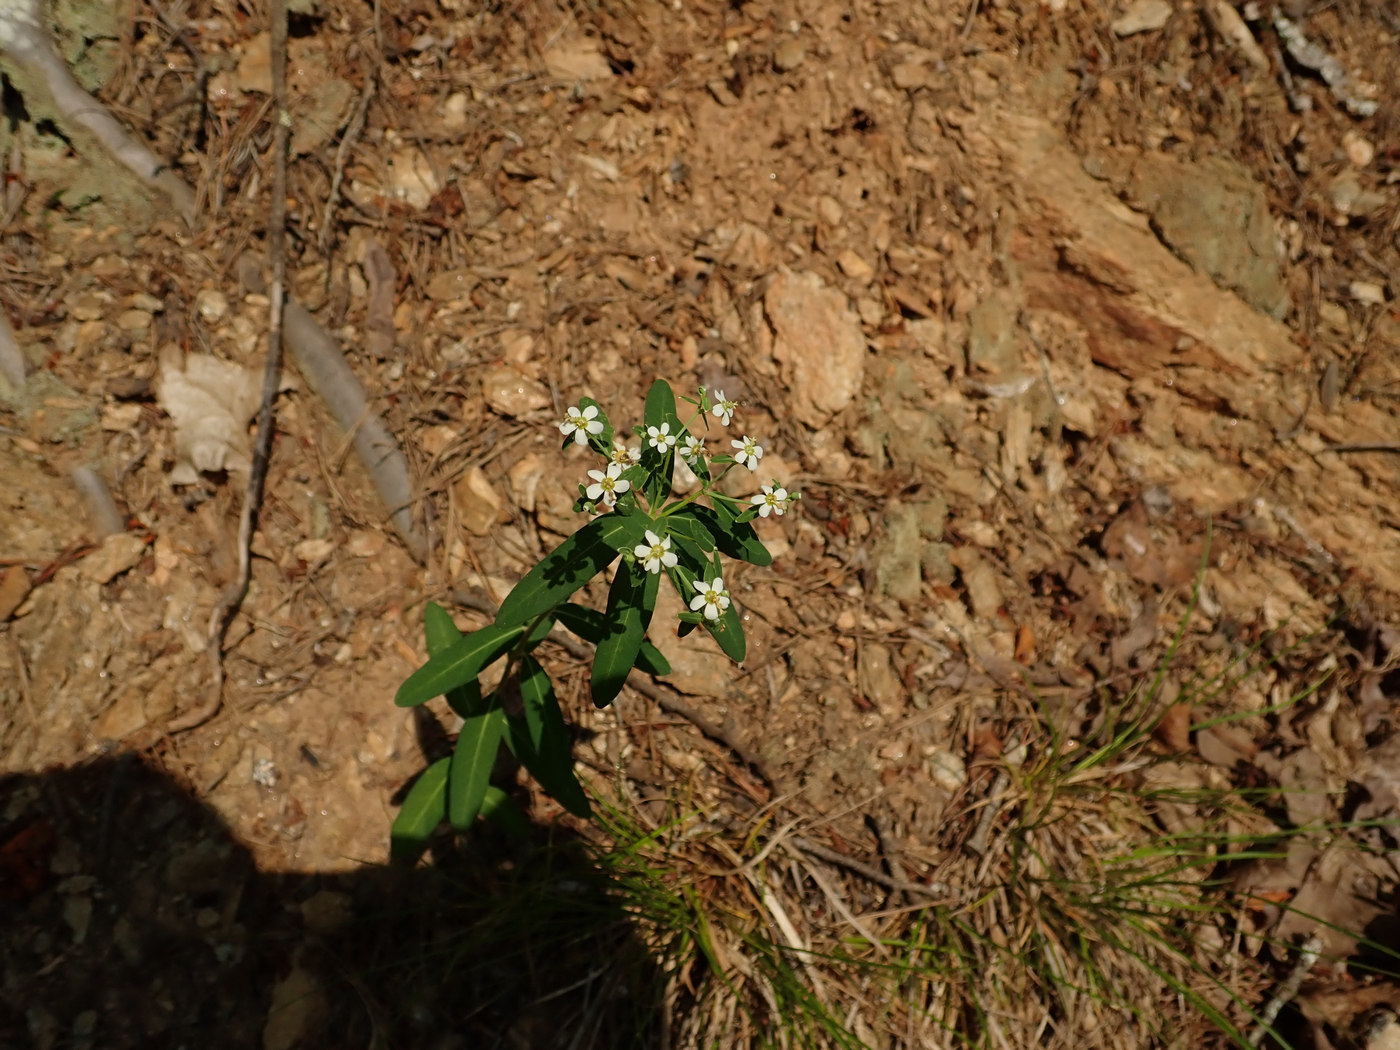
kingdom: Plantae
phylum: Tracheophyta
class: Magnoliopsida
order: Malpighiales
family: Euphorbiaceae
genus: Euphorbia
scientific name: Euphorbia corollata
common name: Flowering spurge
